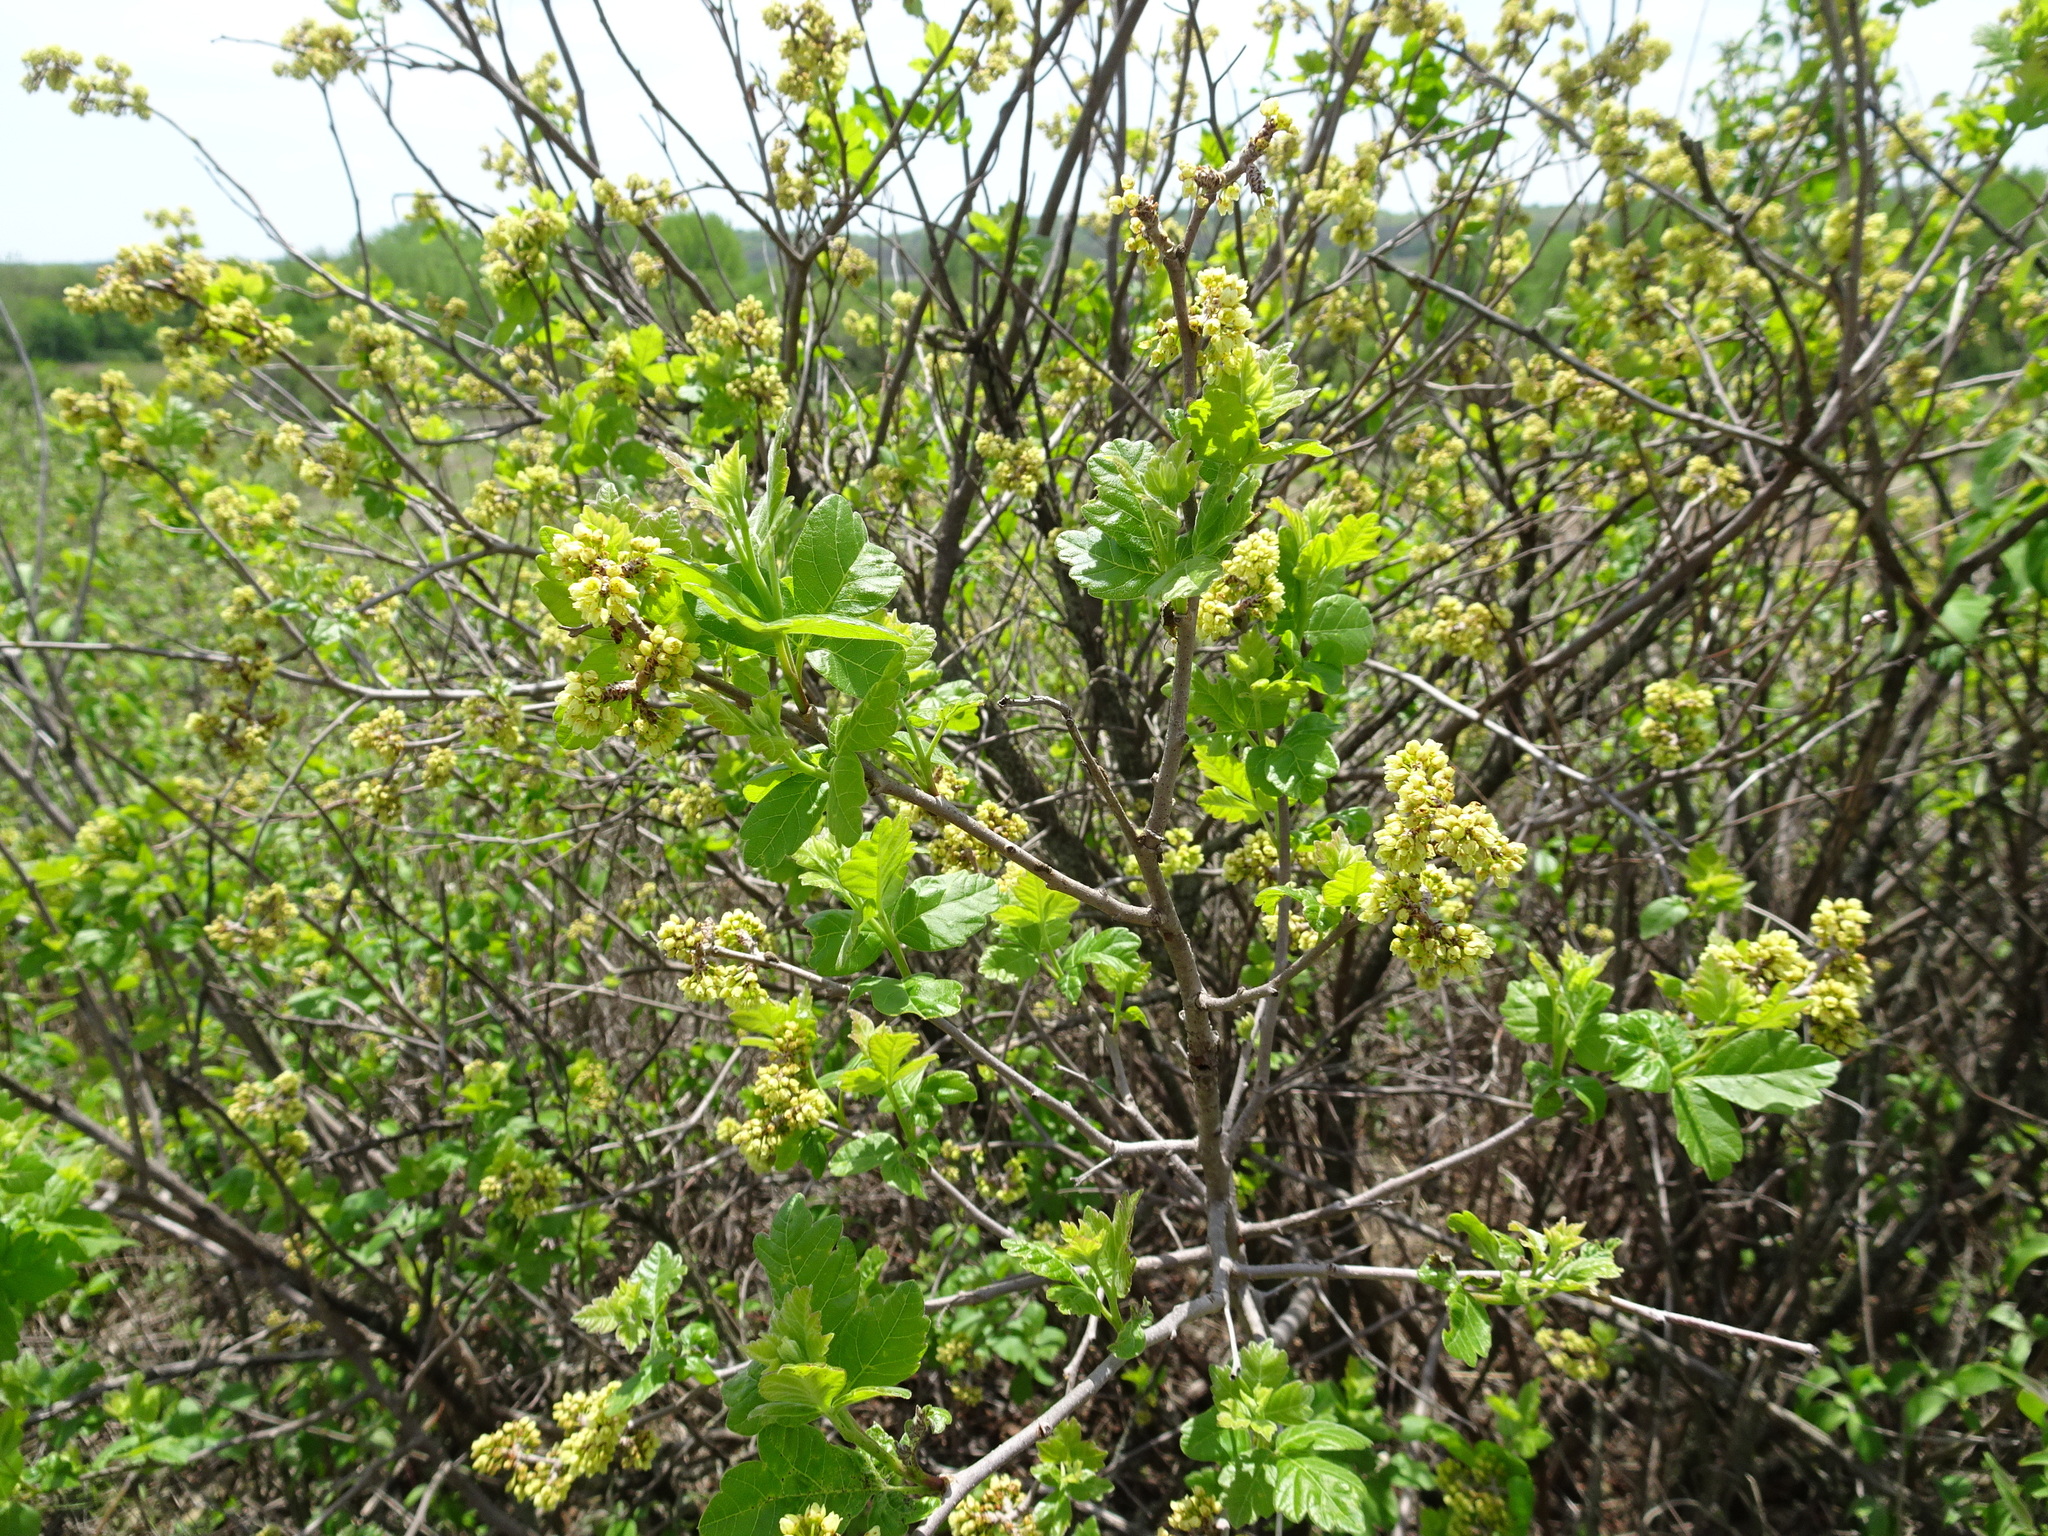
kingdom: Plantae
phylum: Tracheophyta
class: Magnoliopsida
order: Sapindales
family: Anacardiaceae
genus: Rhus
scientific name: Rhus aromatica
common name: Aromatic sumac
